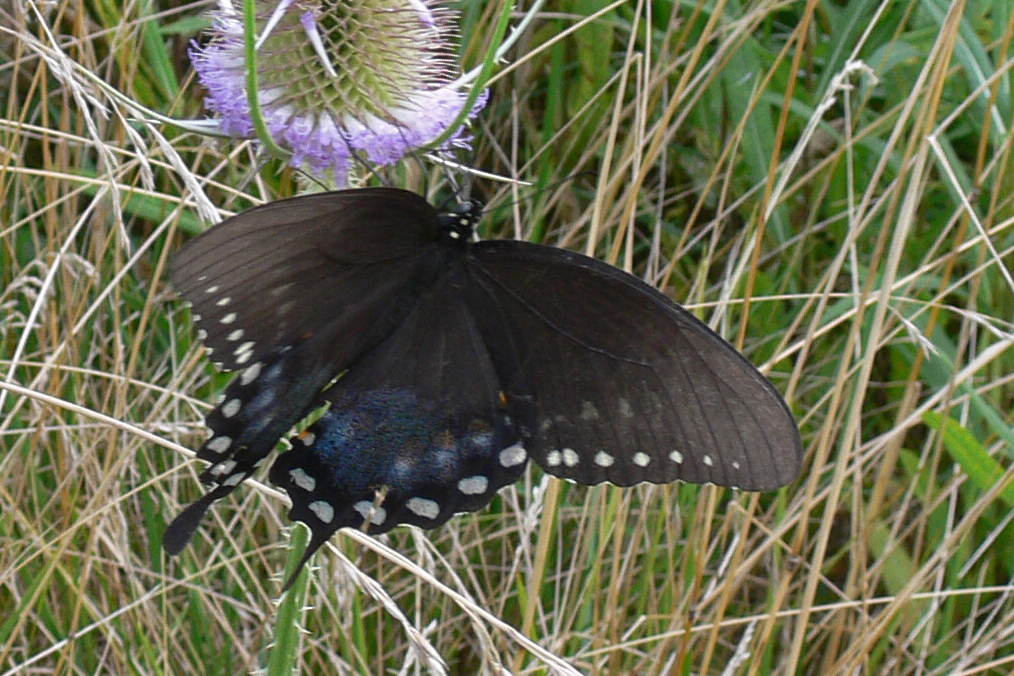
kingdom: Animalia
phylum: Arthropoda
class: Insecta
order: Lepidoptera
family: Papilionidae
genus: Papilio
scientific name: Papilio troilus
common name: Spicebush swallowtail
